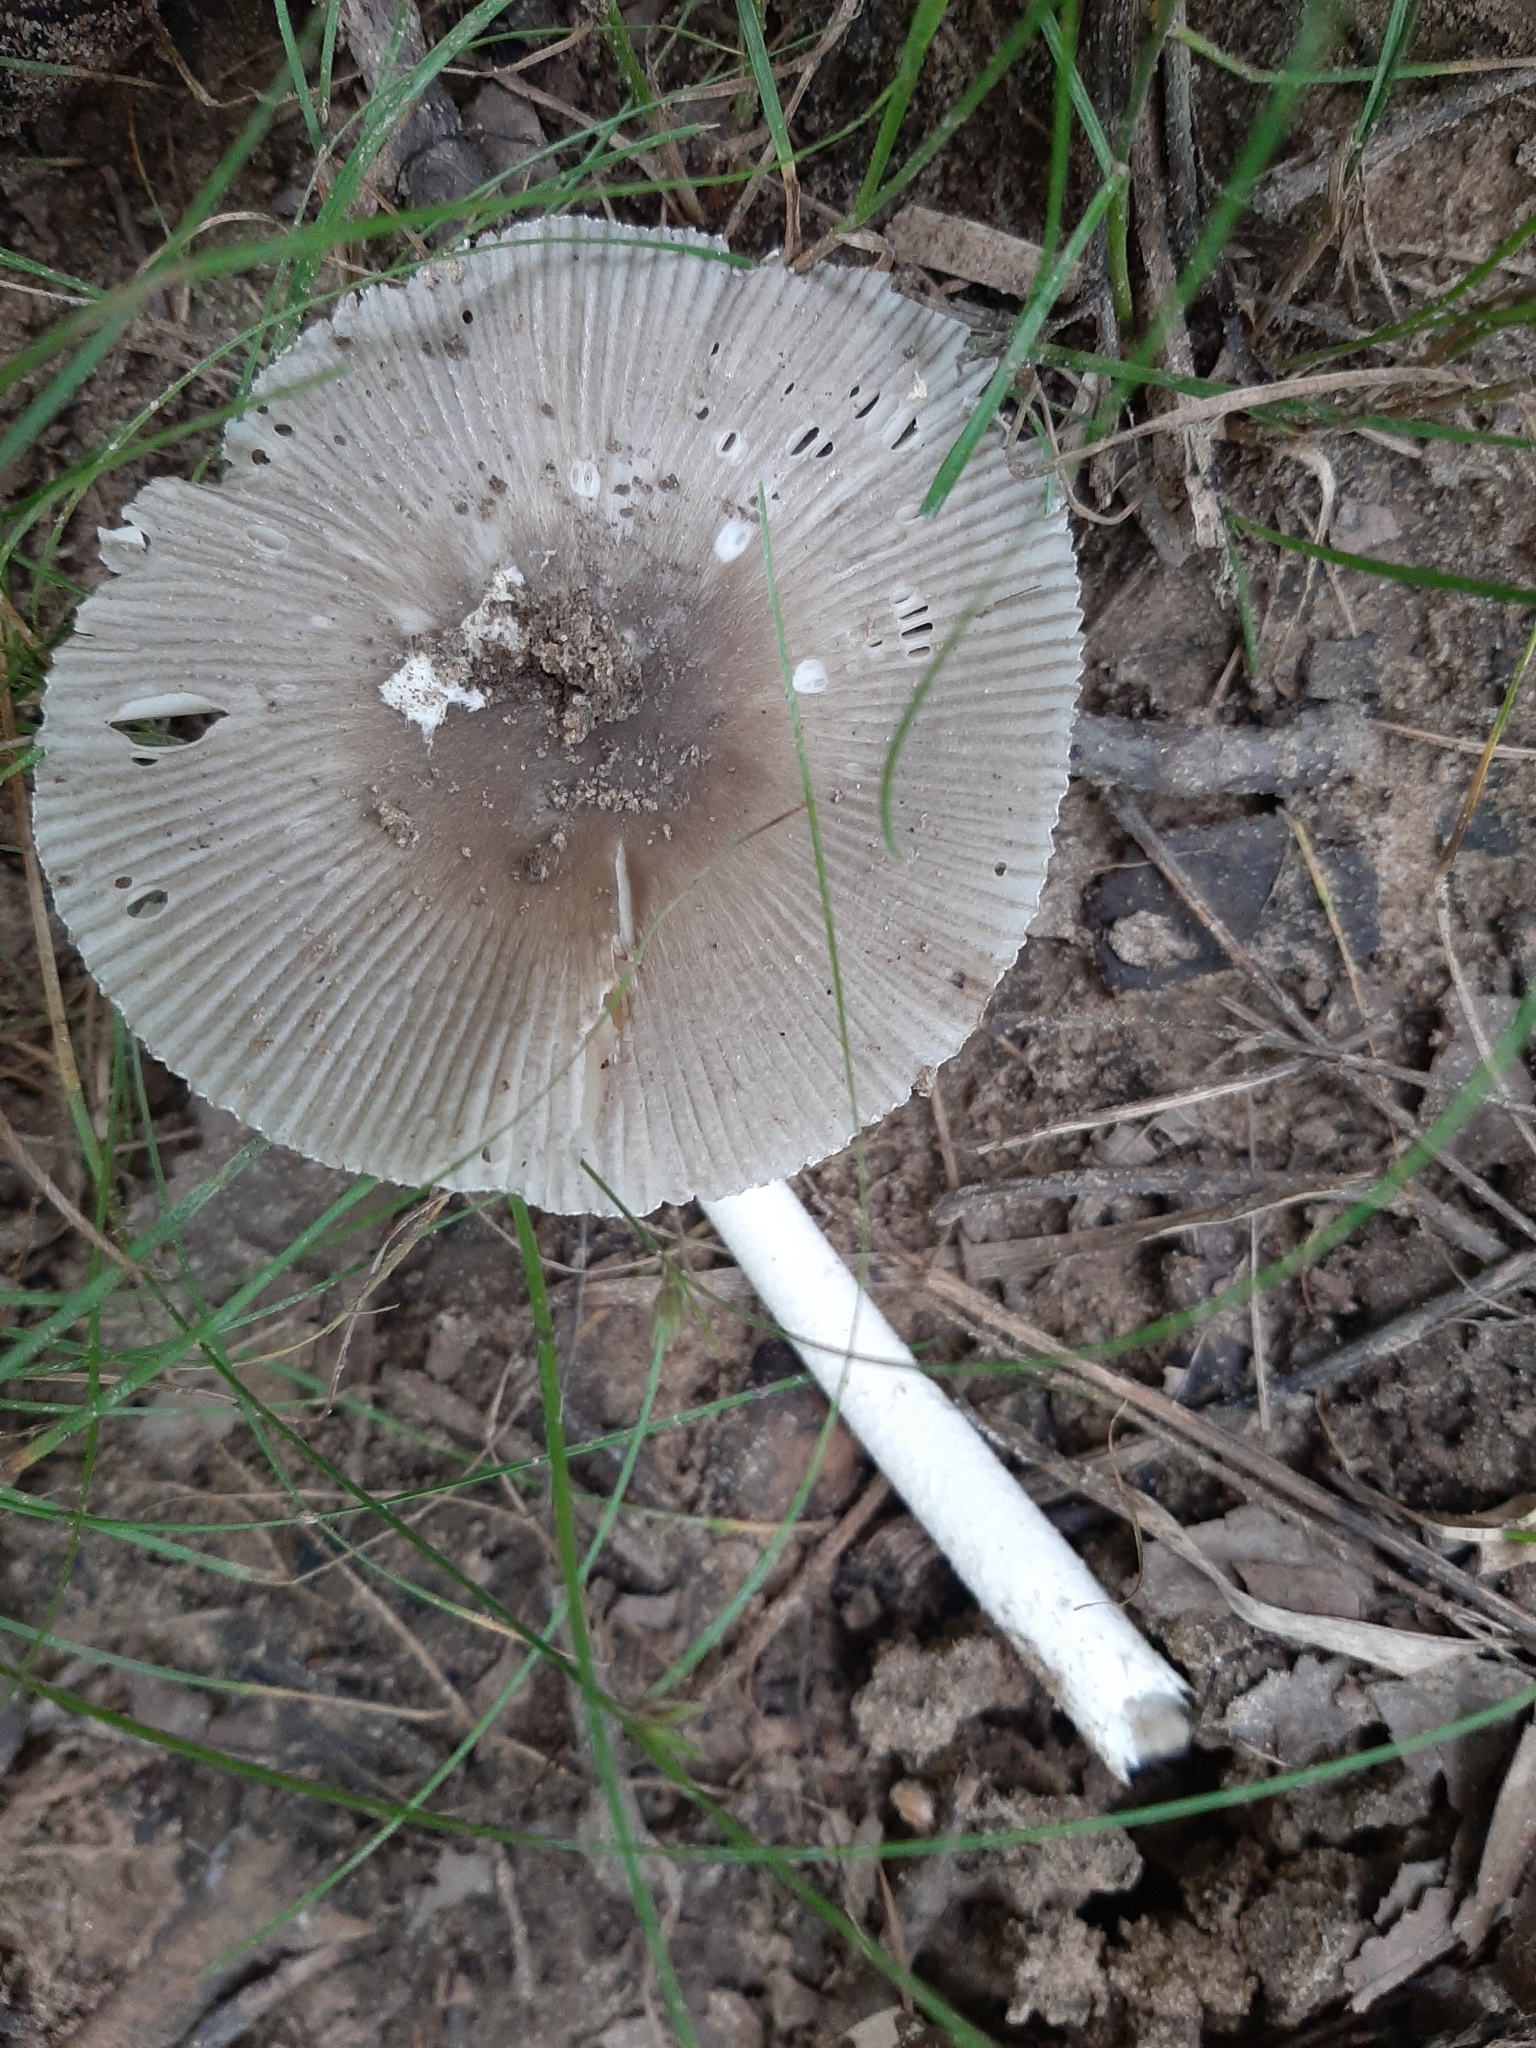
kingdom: Fungi
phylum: Basidiomycota
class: Agaricomycetes
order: Agaricales
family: Amanitaceae
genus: Amanita
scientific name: Amanita vaginata
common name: Grisette
